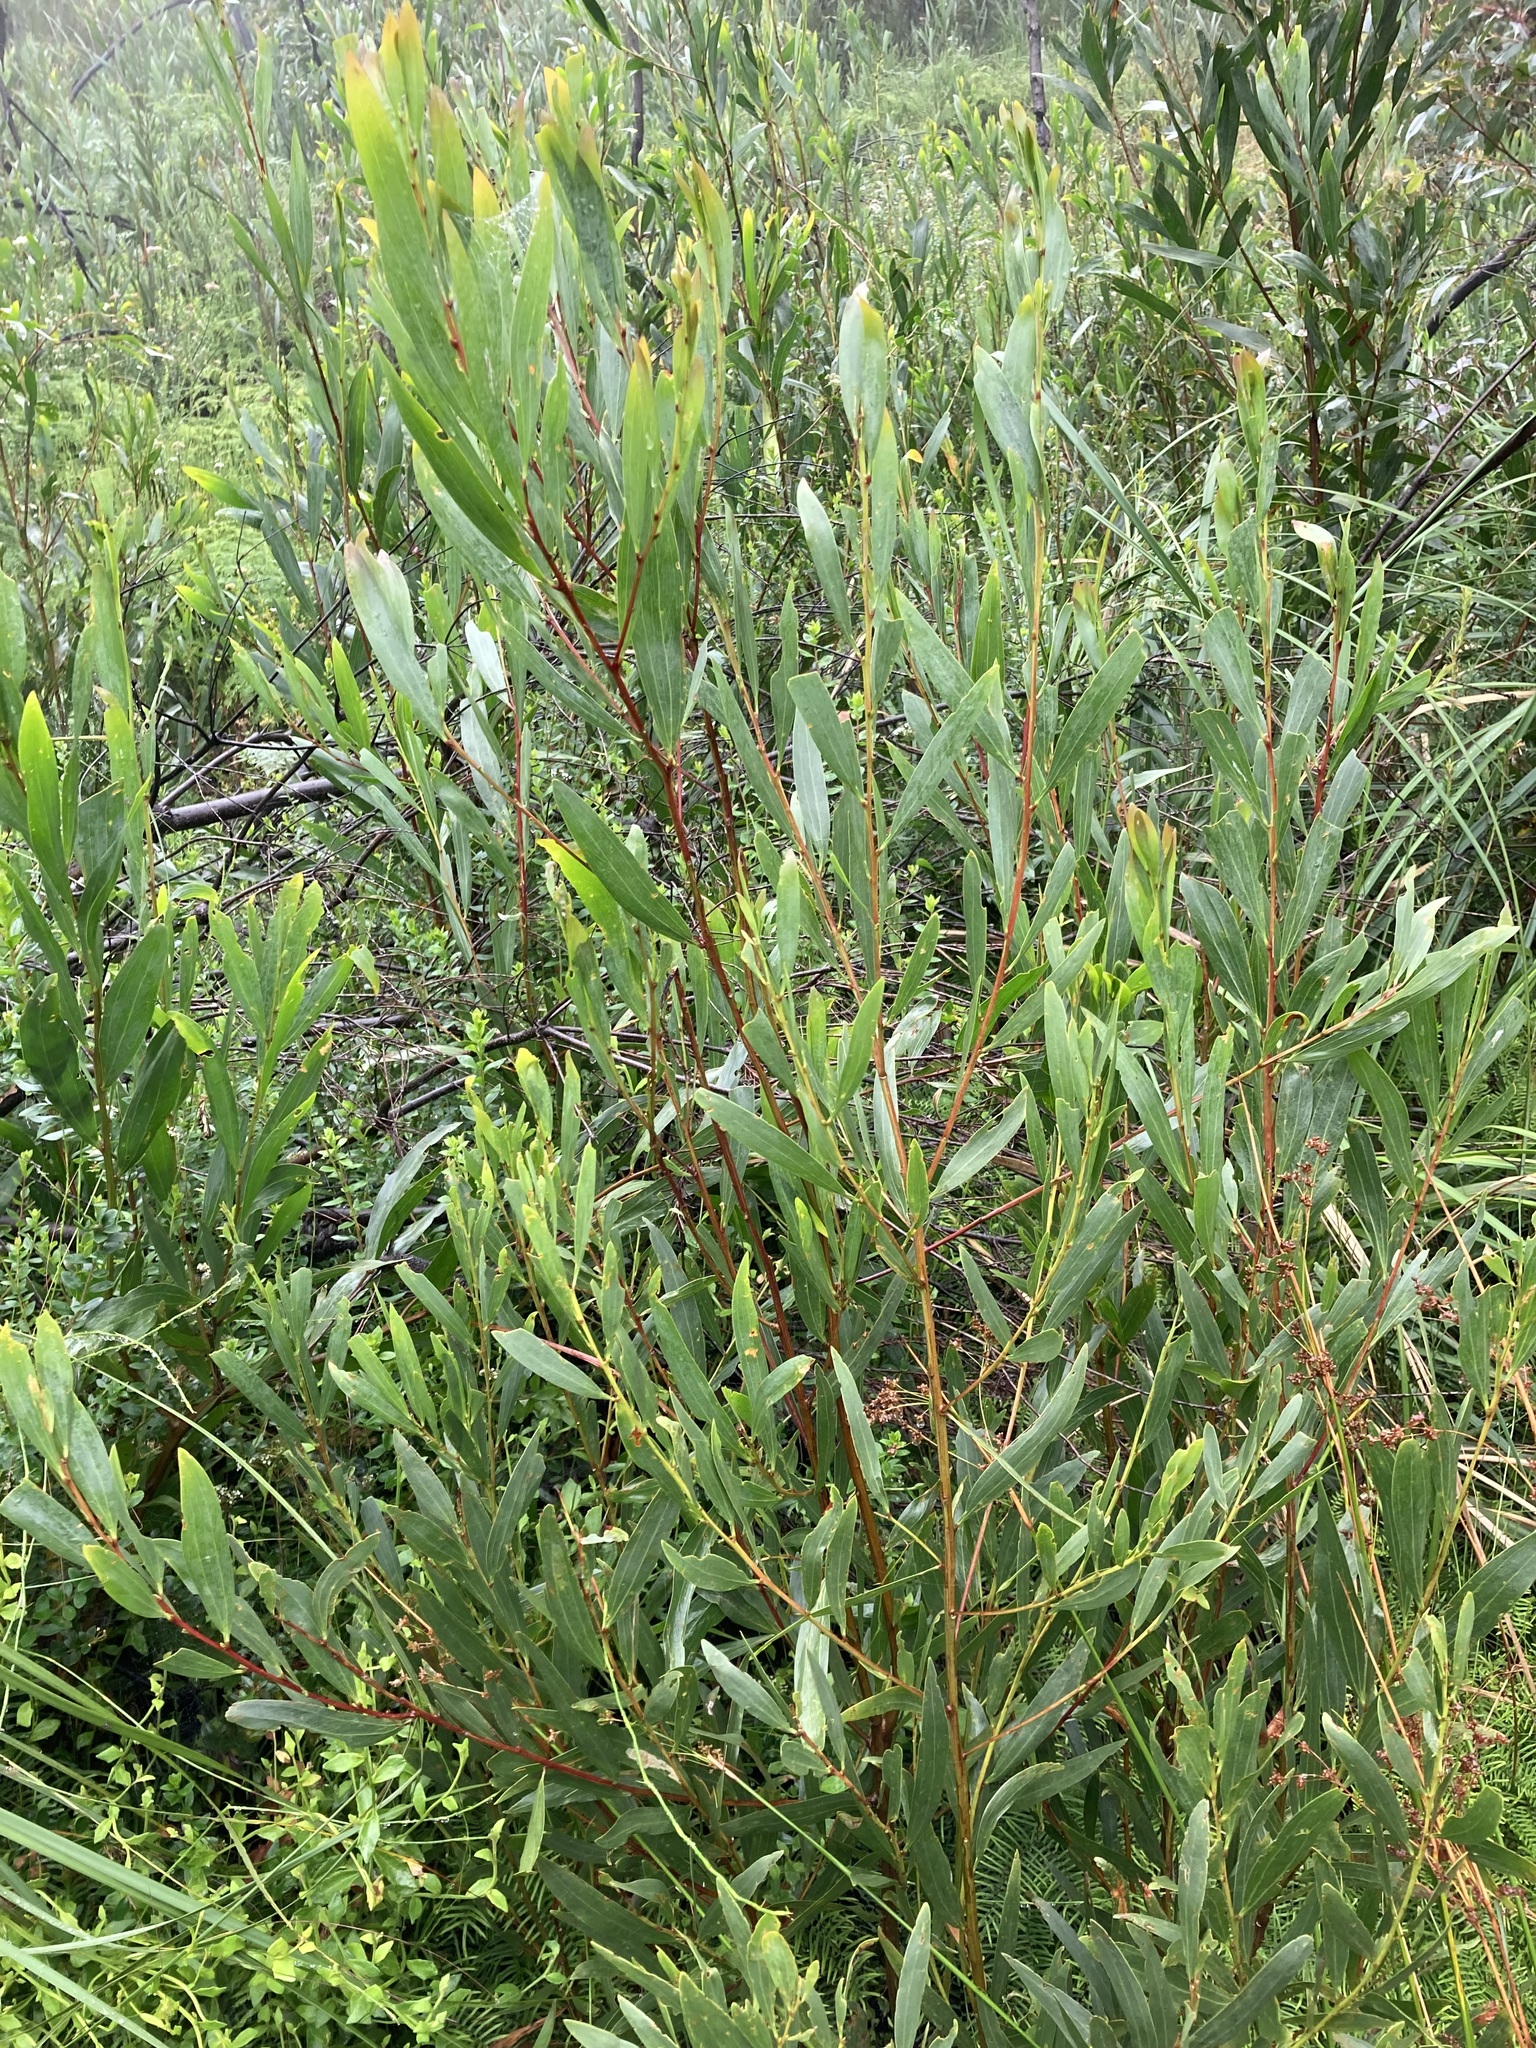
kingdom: Plantae
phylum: Tracheophyta
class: Magnoliopsida
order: Fabales
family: Fabaceae
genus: Acacia
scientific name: Acacia longifolia
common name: Sydney golden wattle
